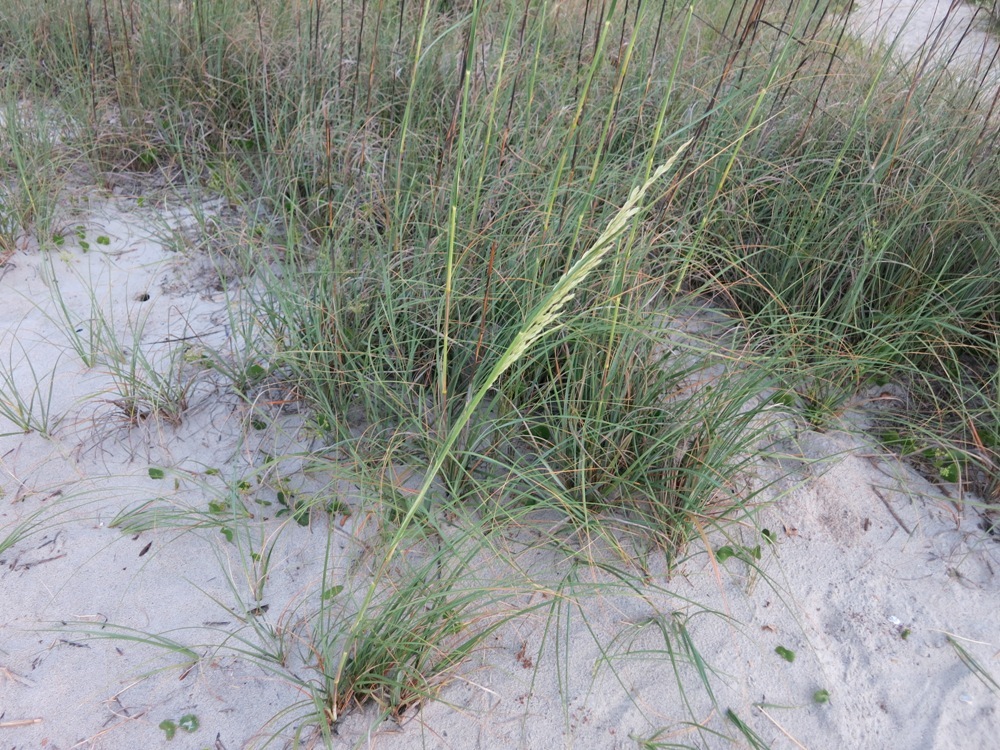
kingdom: Plantae
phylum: Tracheophyta
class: Liliopsida
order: Poales
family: Poaceae
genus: Uniola
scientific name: Uniola paniculata
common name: Seaside-oats
